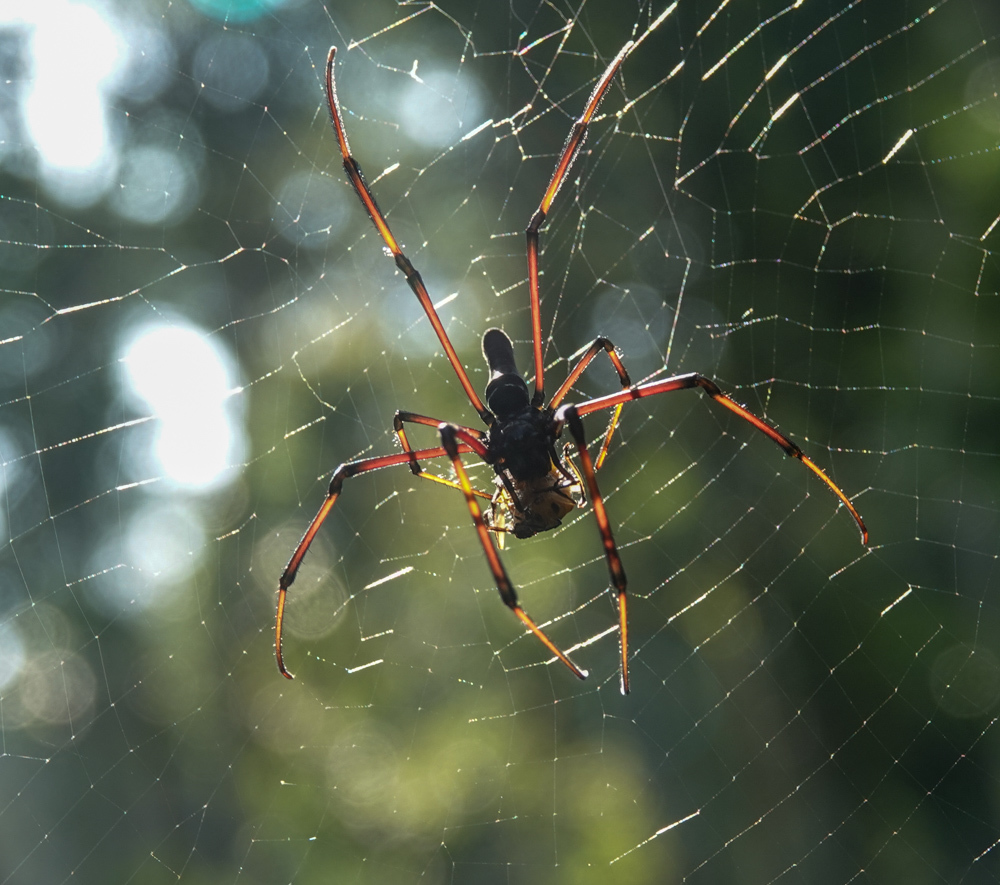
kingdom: Animalia
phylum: Arthropoda
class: Arachnida
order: Araneae
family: Araneidae
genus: Nephila
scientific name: Nephila kuhli
